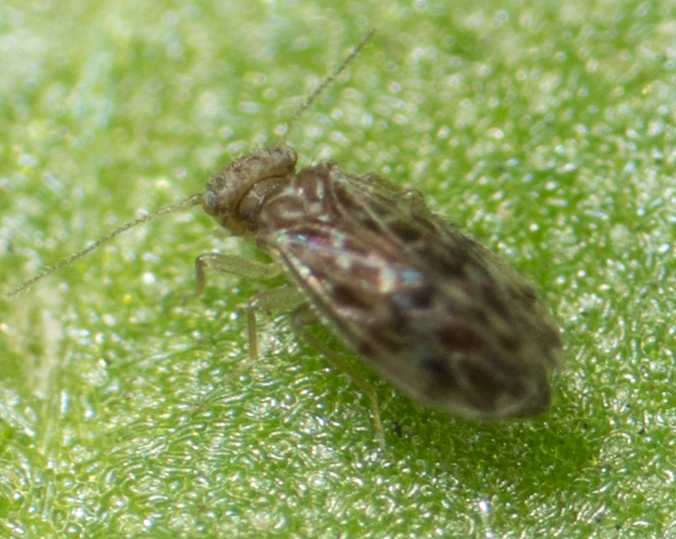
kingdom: Animalia
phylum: Arthropoda
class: Insecta
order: Psocodea
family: Ectopsocidae
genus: Ectopsocus
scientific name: Ectopsocus strauchi
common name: Medium-sized bark louse
